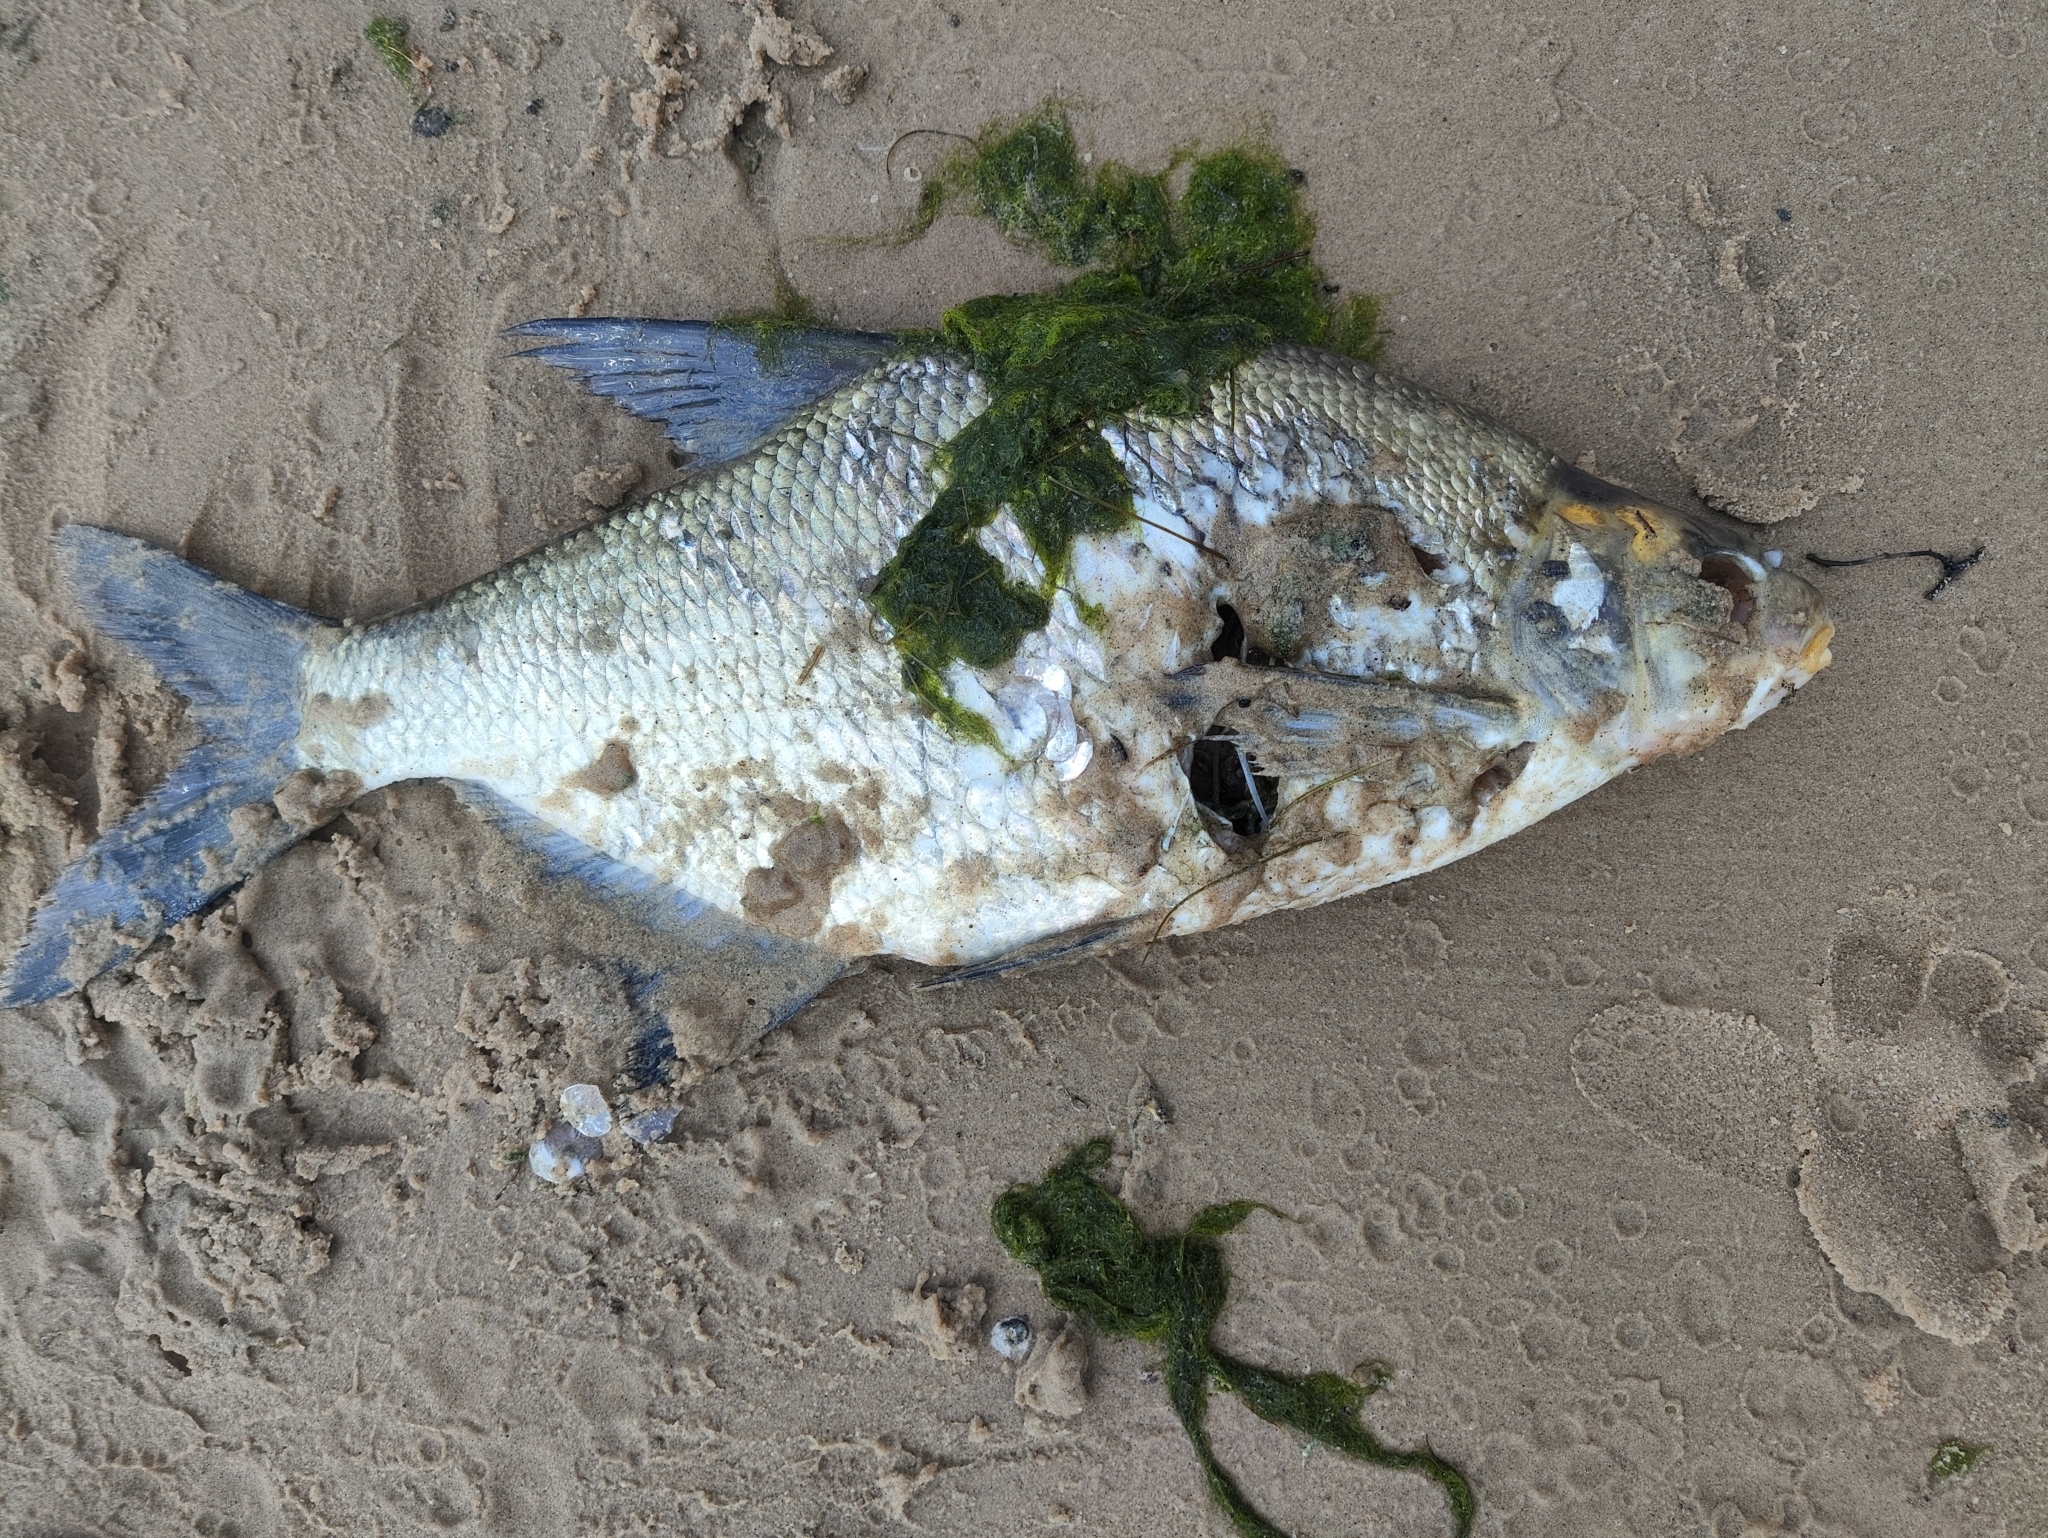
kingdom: Animalia
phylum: Chordata
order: Cypriniformes
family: Cyprinidae
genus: Abramis
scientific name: Abramis brama
